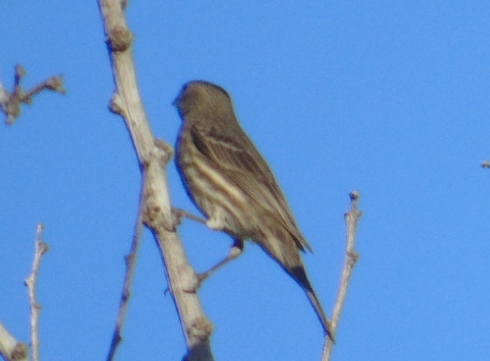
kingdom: Animalia
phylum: Chordata
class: Aves
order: Passeriformes
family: Fringillidae
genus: Haemorhous
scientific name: Haemorhous mexicanus
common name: House finch
